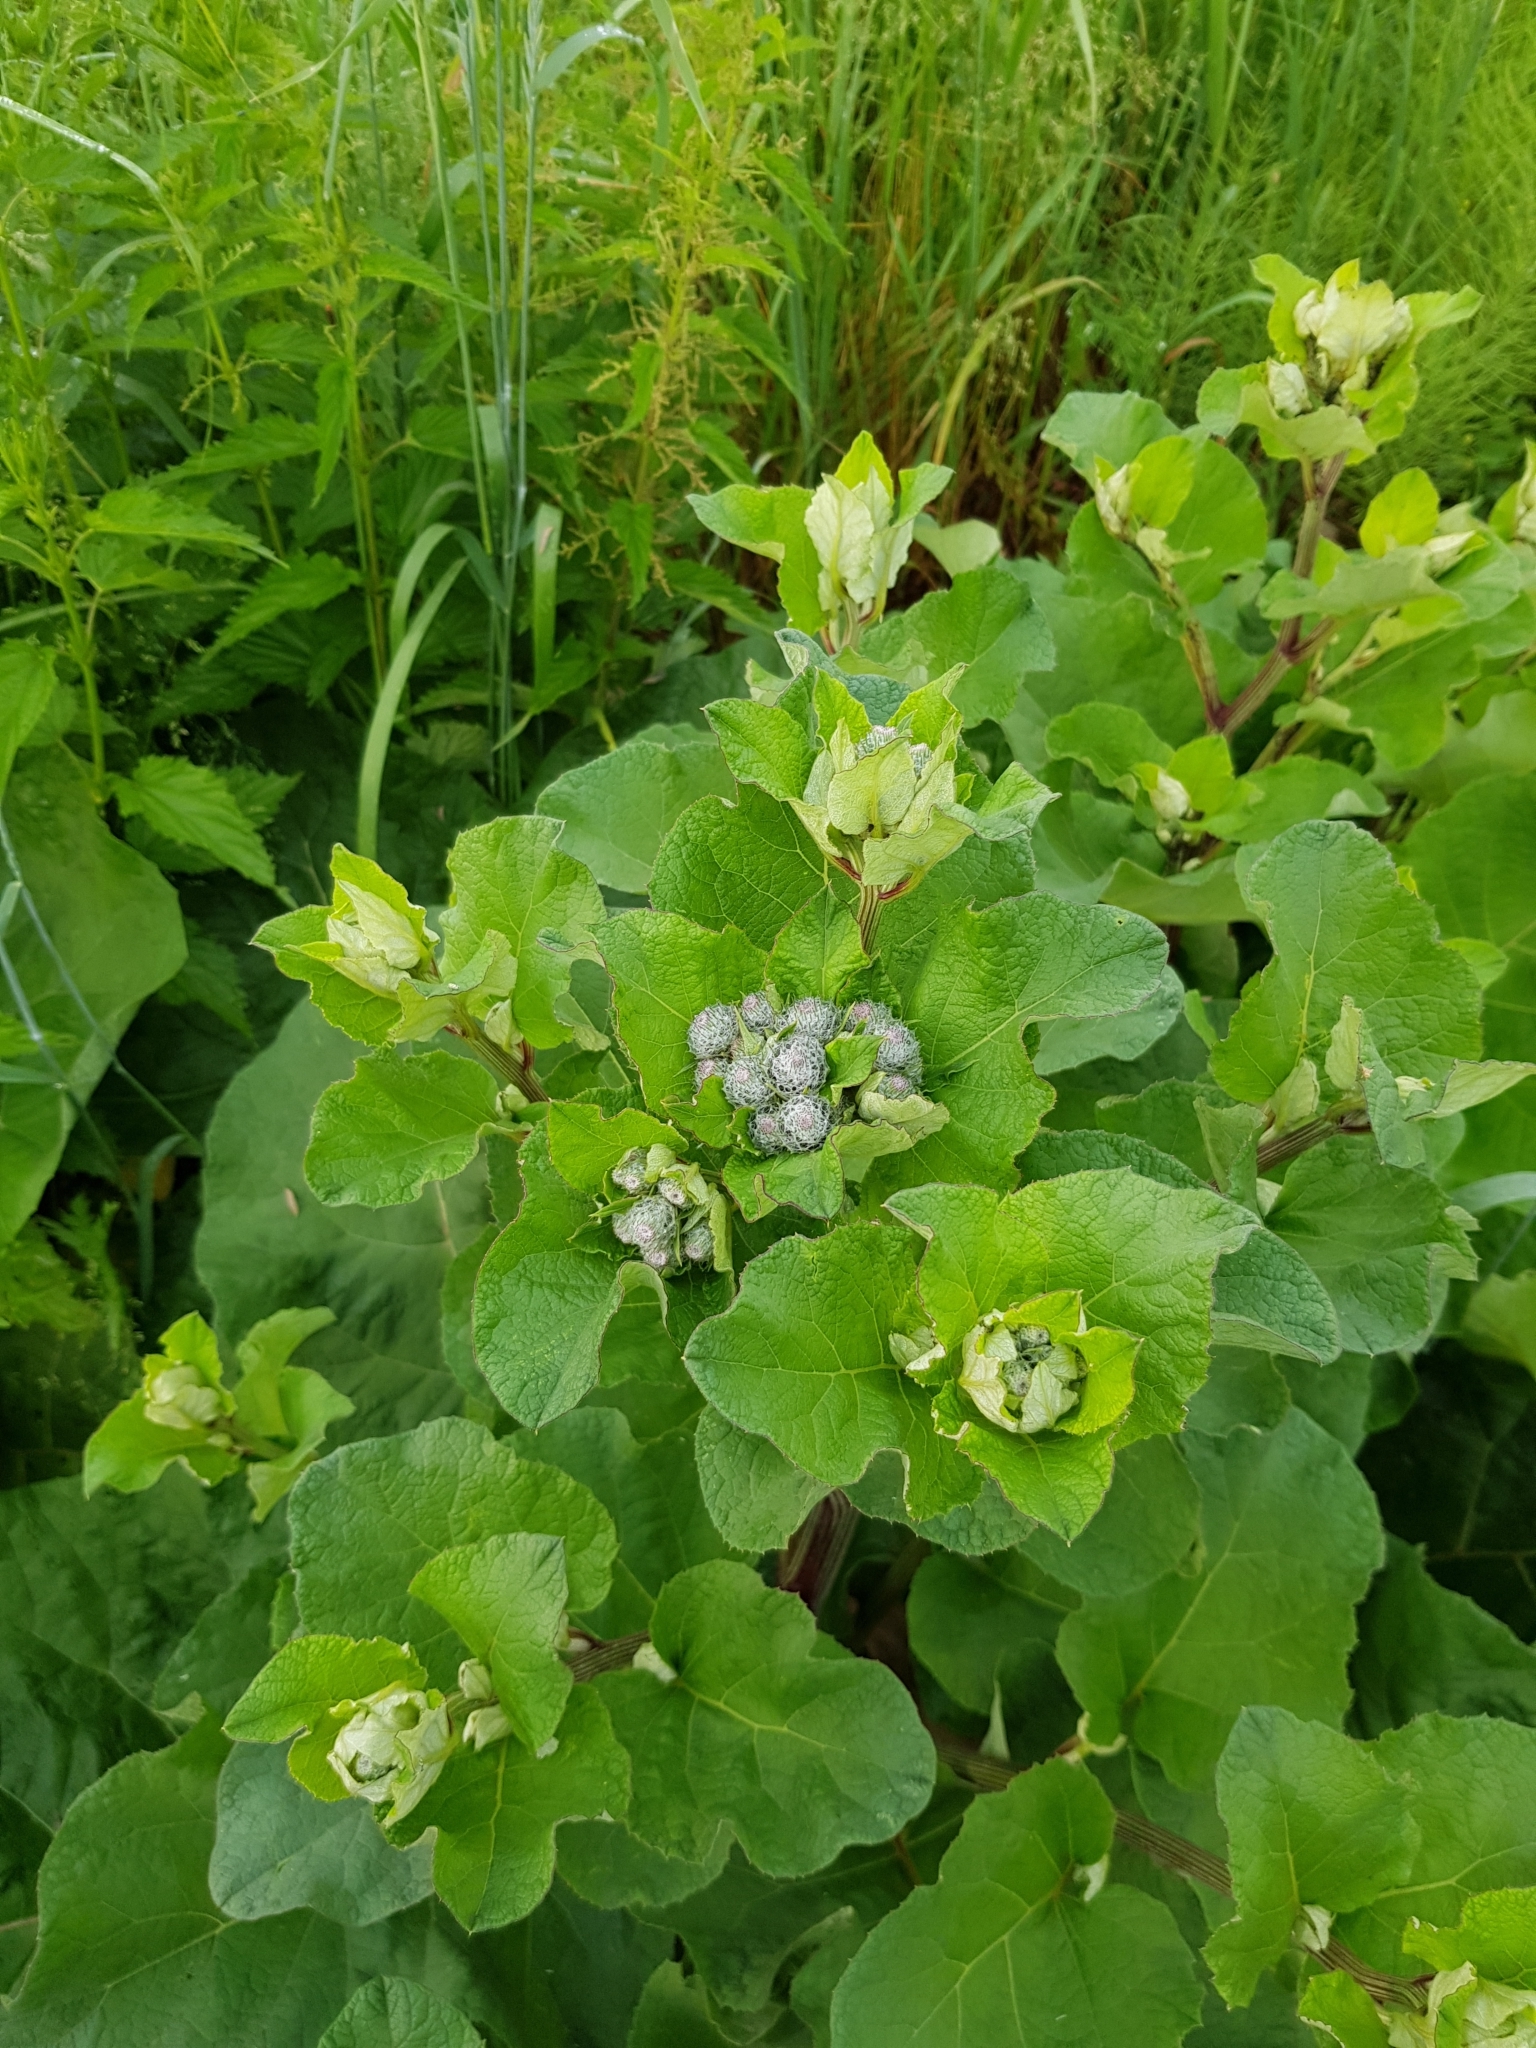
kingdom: Plantae
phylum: Tracheophyta
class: Magnoliopsida
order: Asterales
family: Asteraceae
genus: Arctium
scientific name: Arctium tomentosum
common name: Woolly burdock
